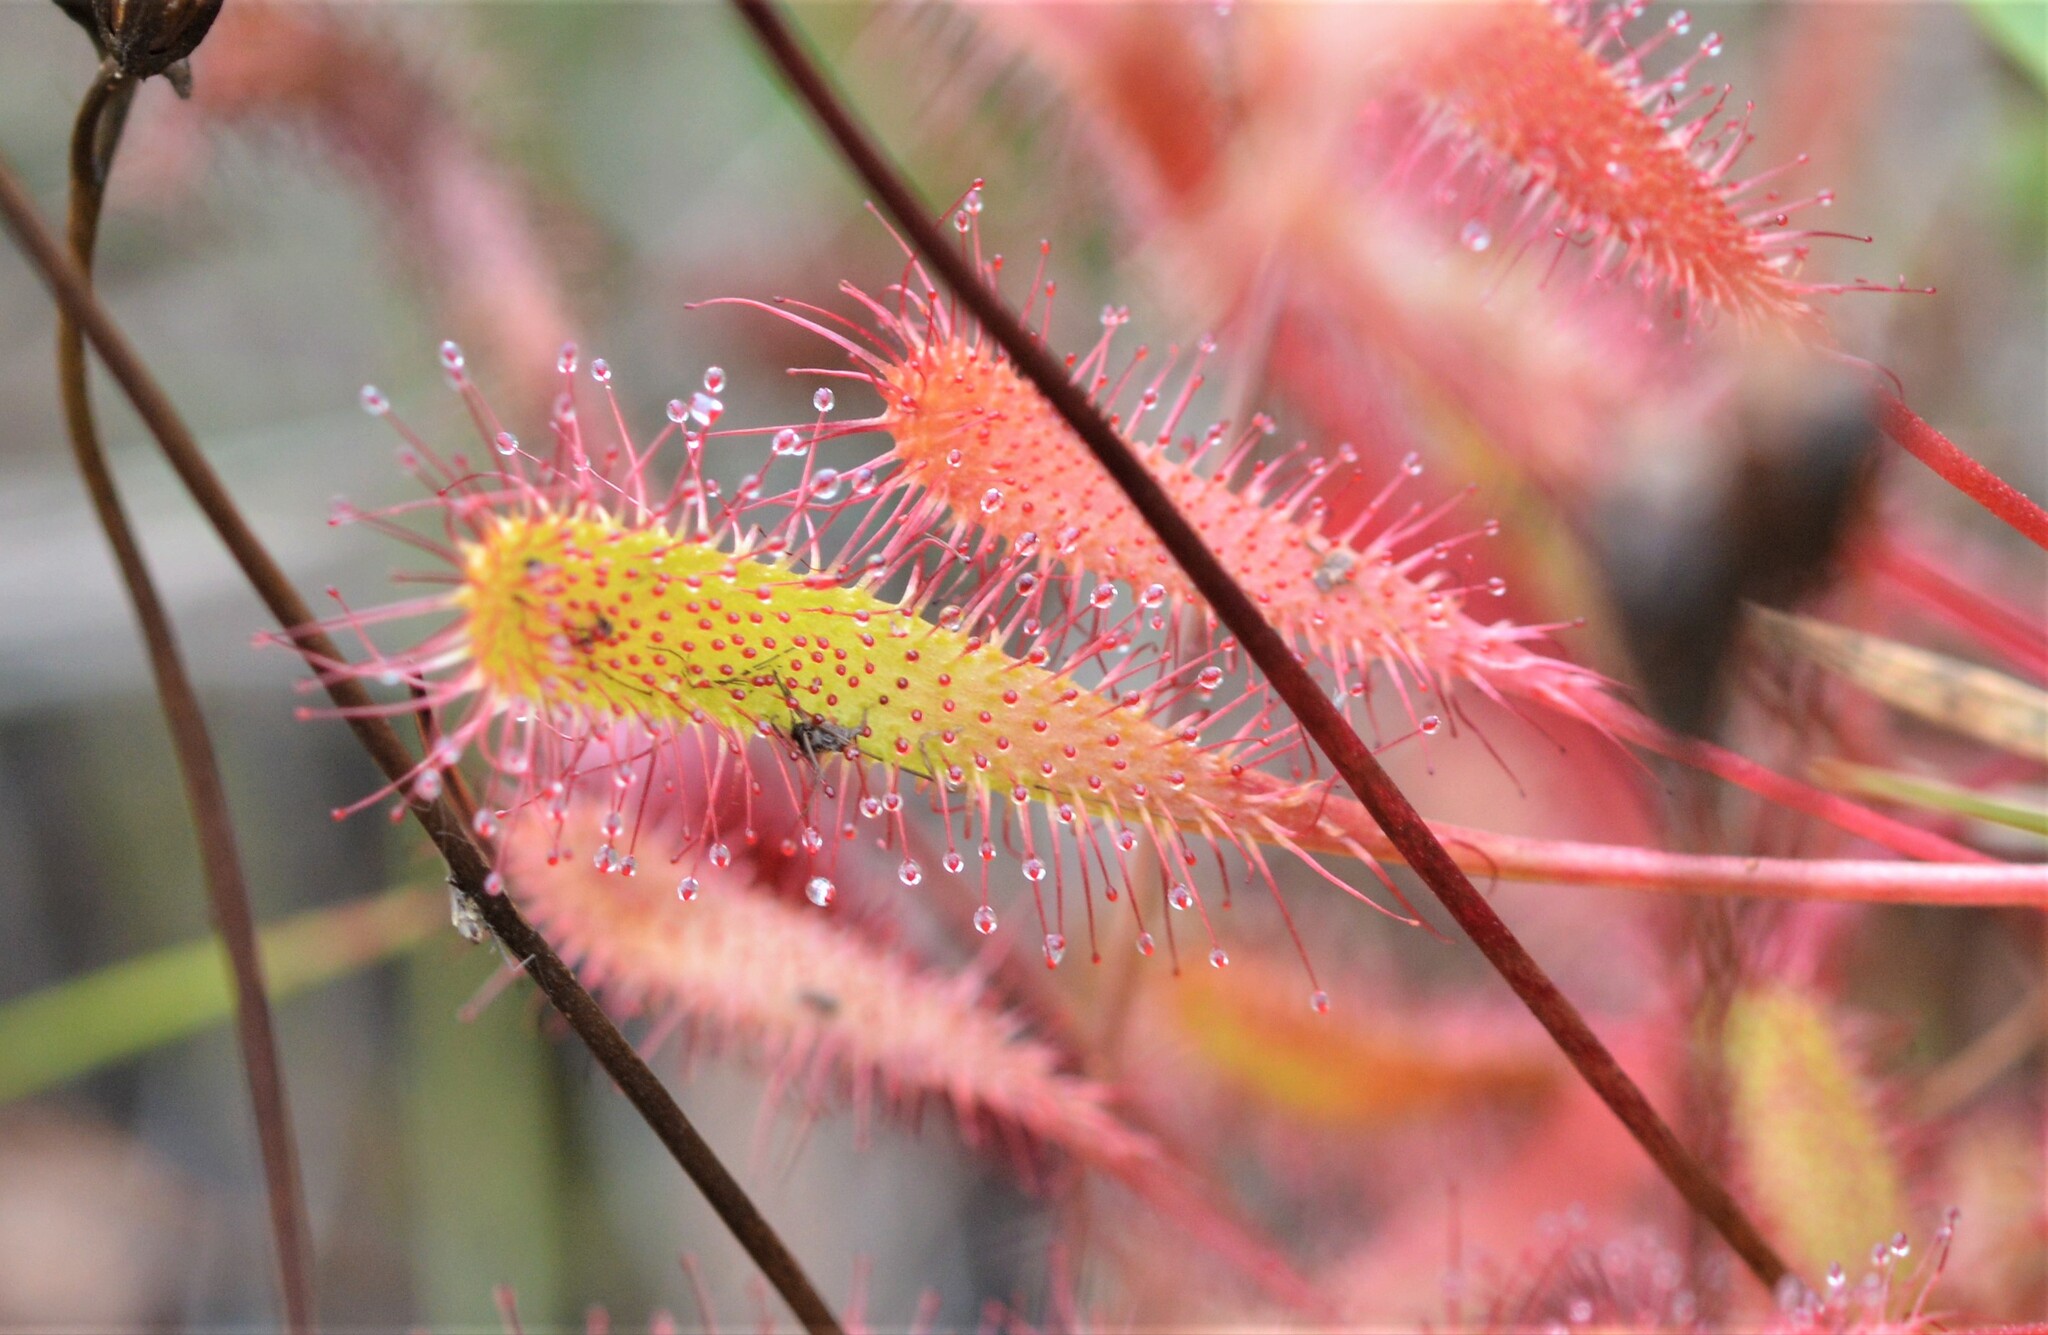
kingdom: Plantae
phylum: Tracheophyta
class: Magnoliopsida
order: Caryophyllales
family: Droseraceae
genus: Drosera
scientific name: Drosera anglica
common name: Great sundew
